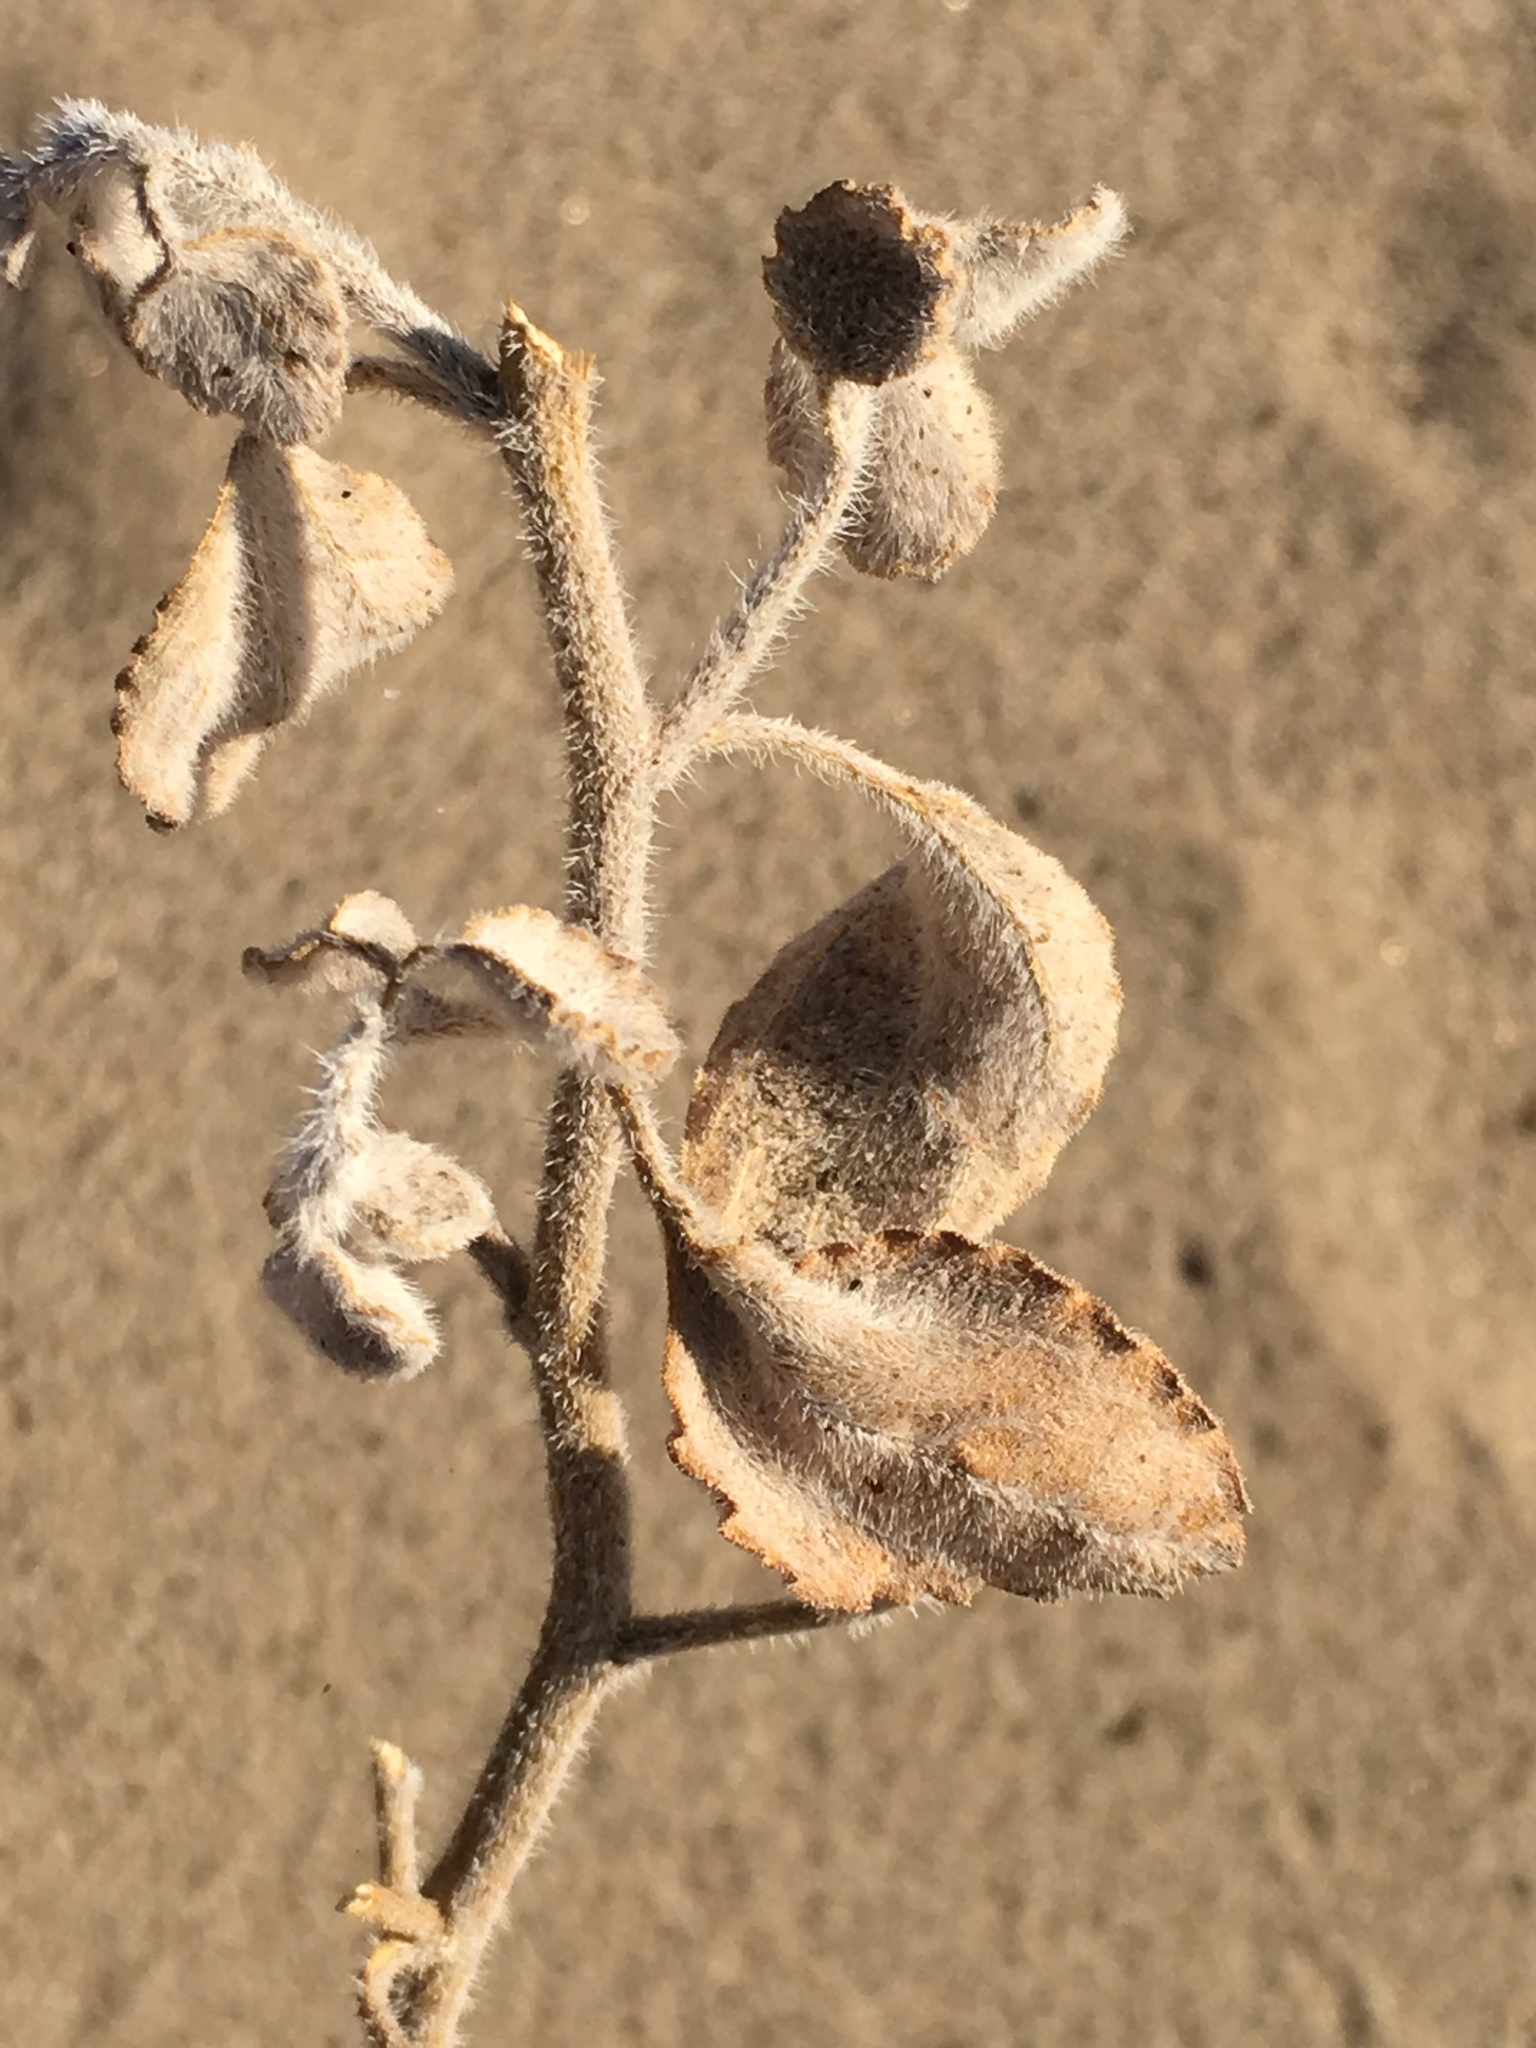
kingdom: Plantae
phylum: Tracheophyta
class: Magnoliopsida
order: Asterales
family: Asteraceae
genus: Dicoria
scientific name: Dicoria canescens
